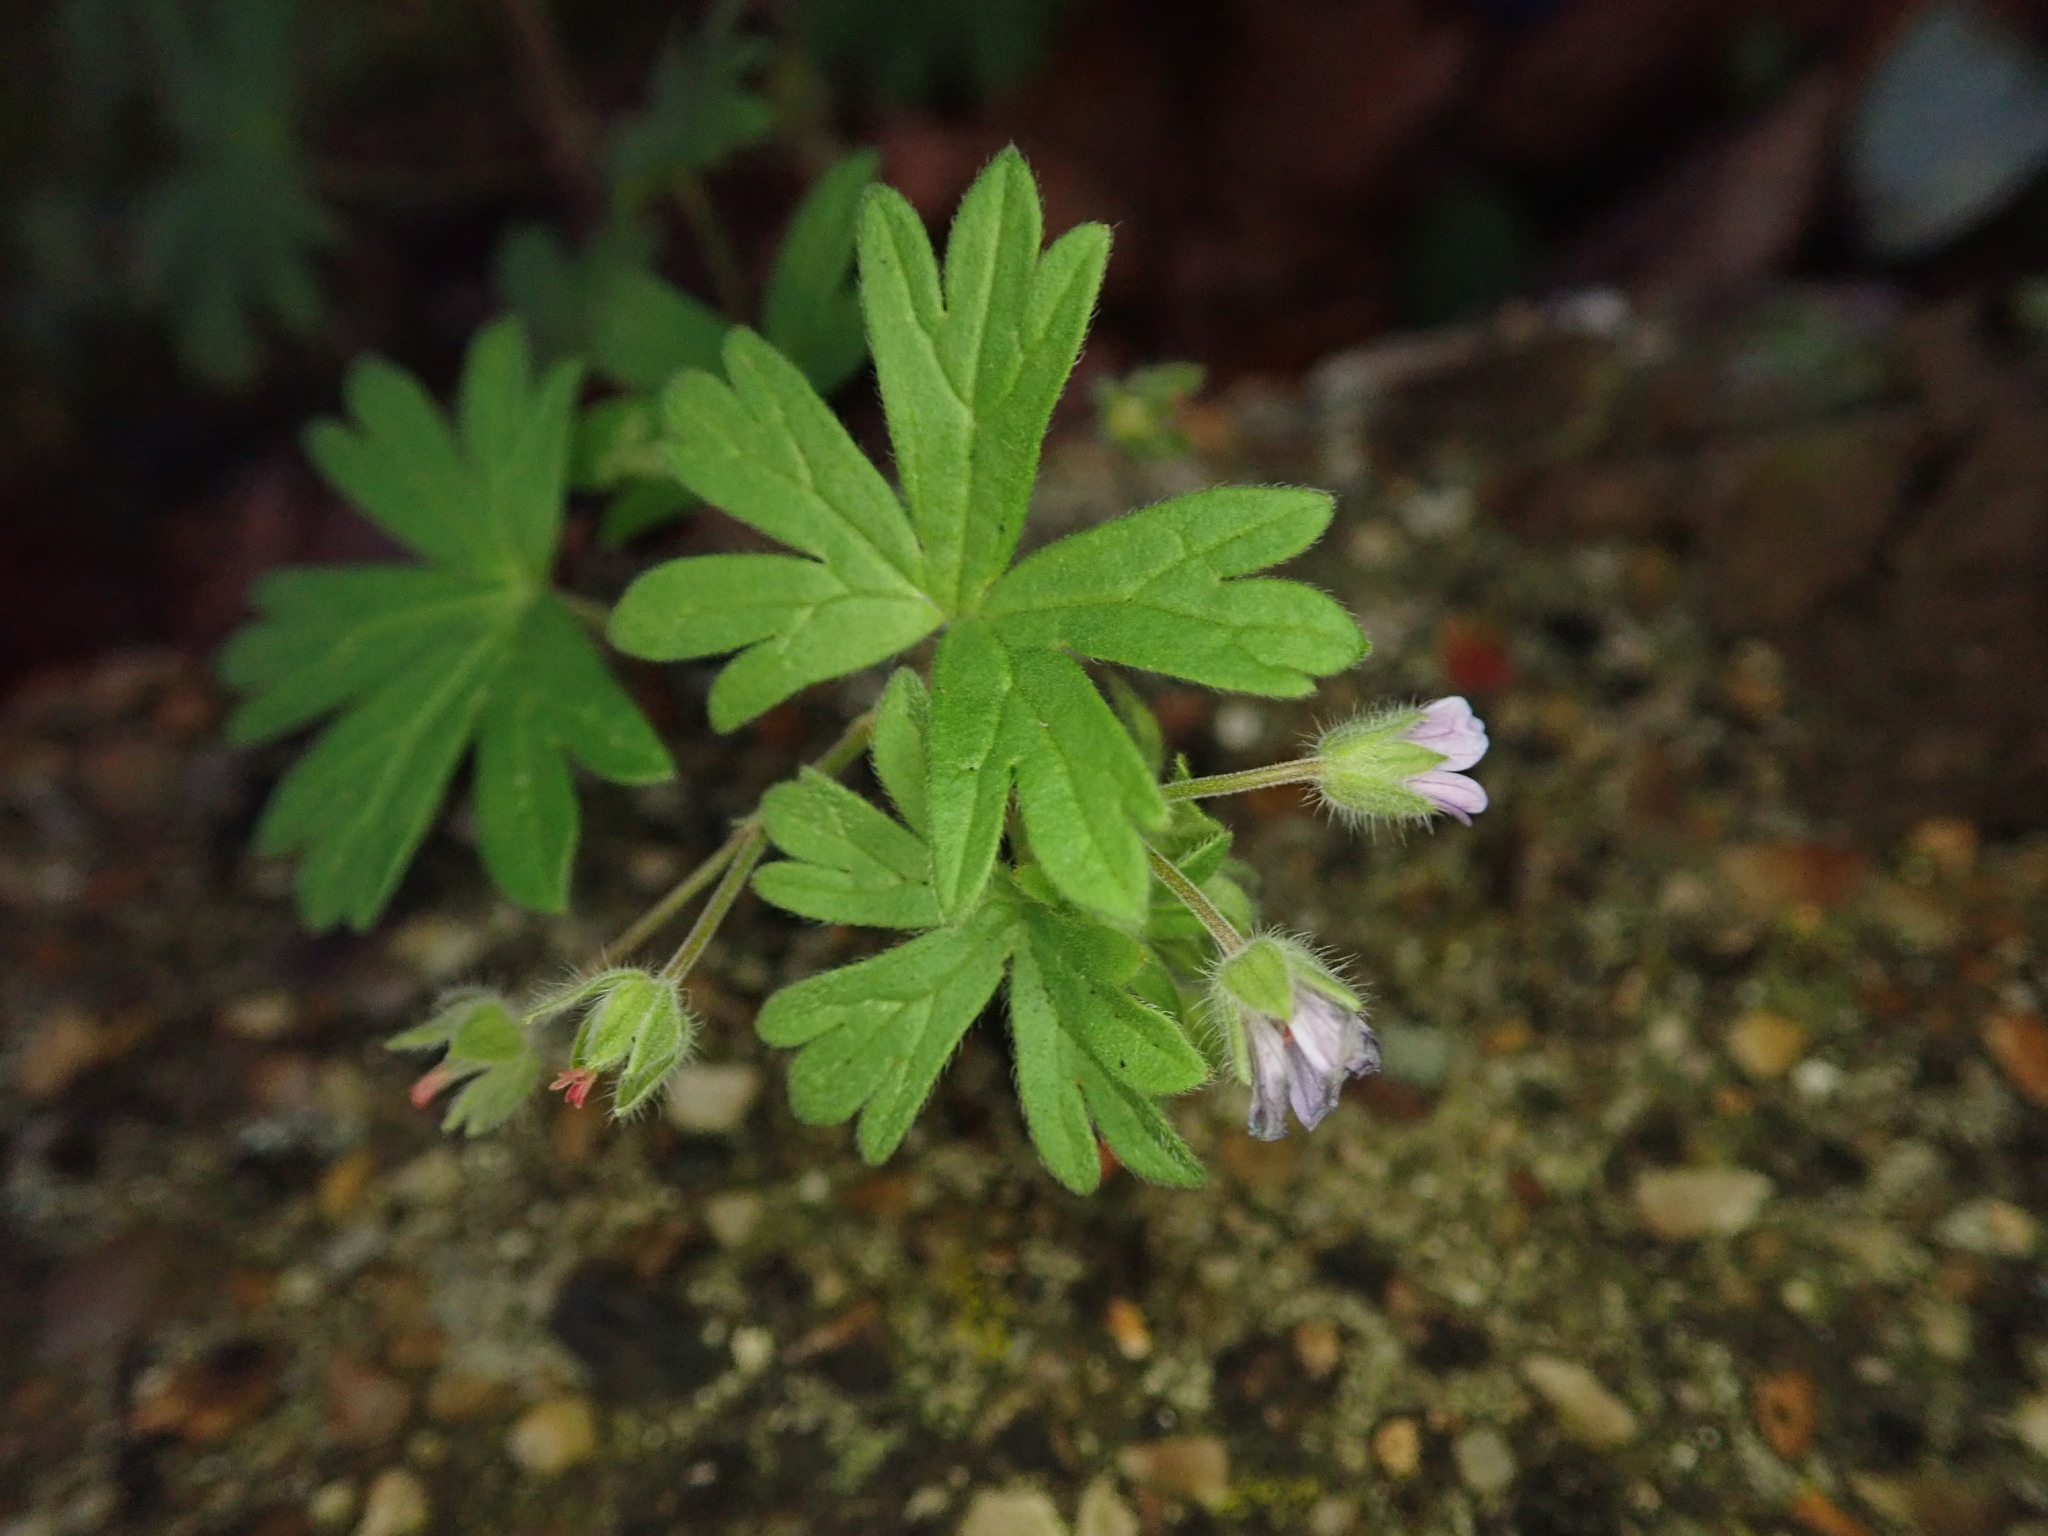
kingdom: Plantae
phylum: Tracheophyta
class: Magnoliopsida
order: Geraniales
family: Geraniaceae
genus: Geranium
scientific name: Geranium pusillum
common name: Small geranium
